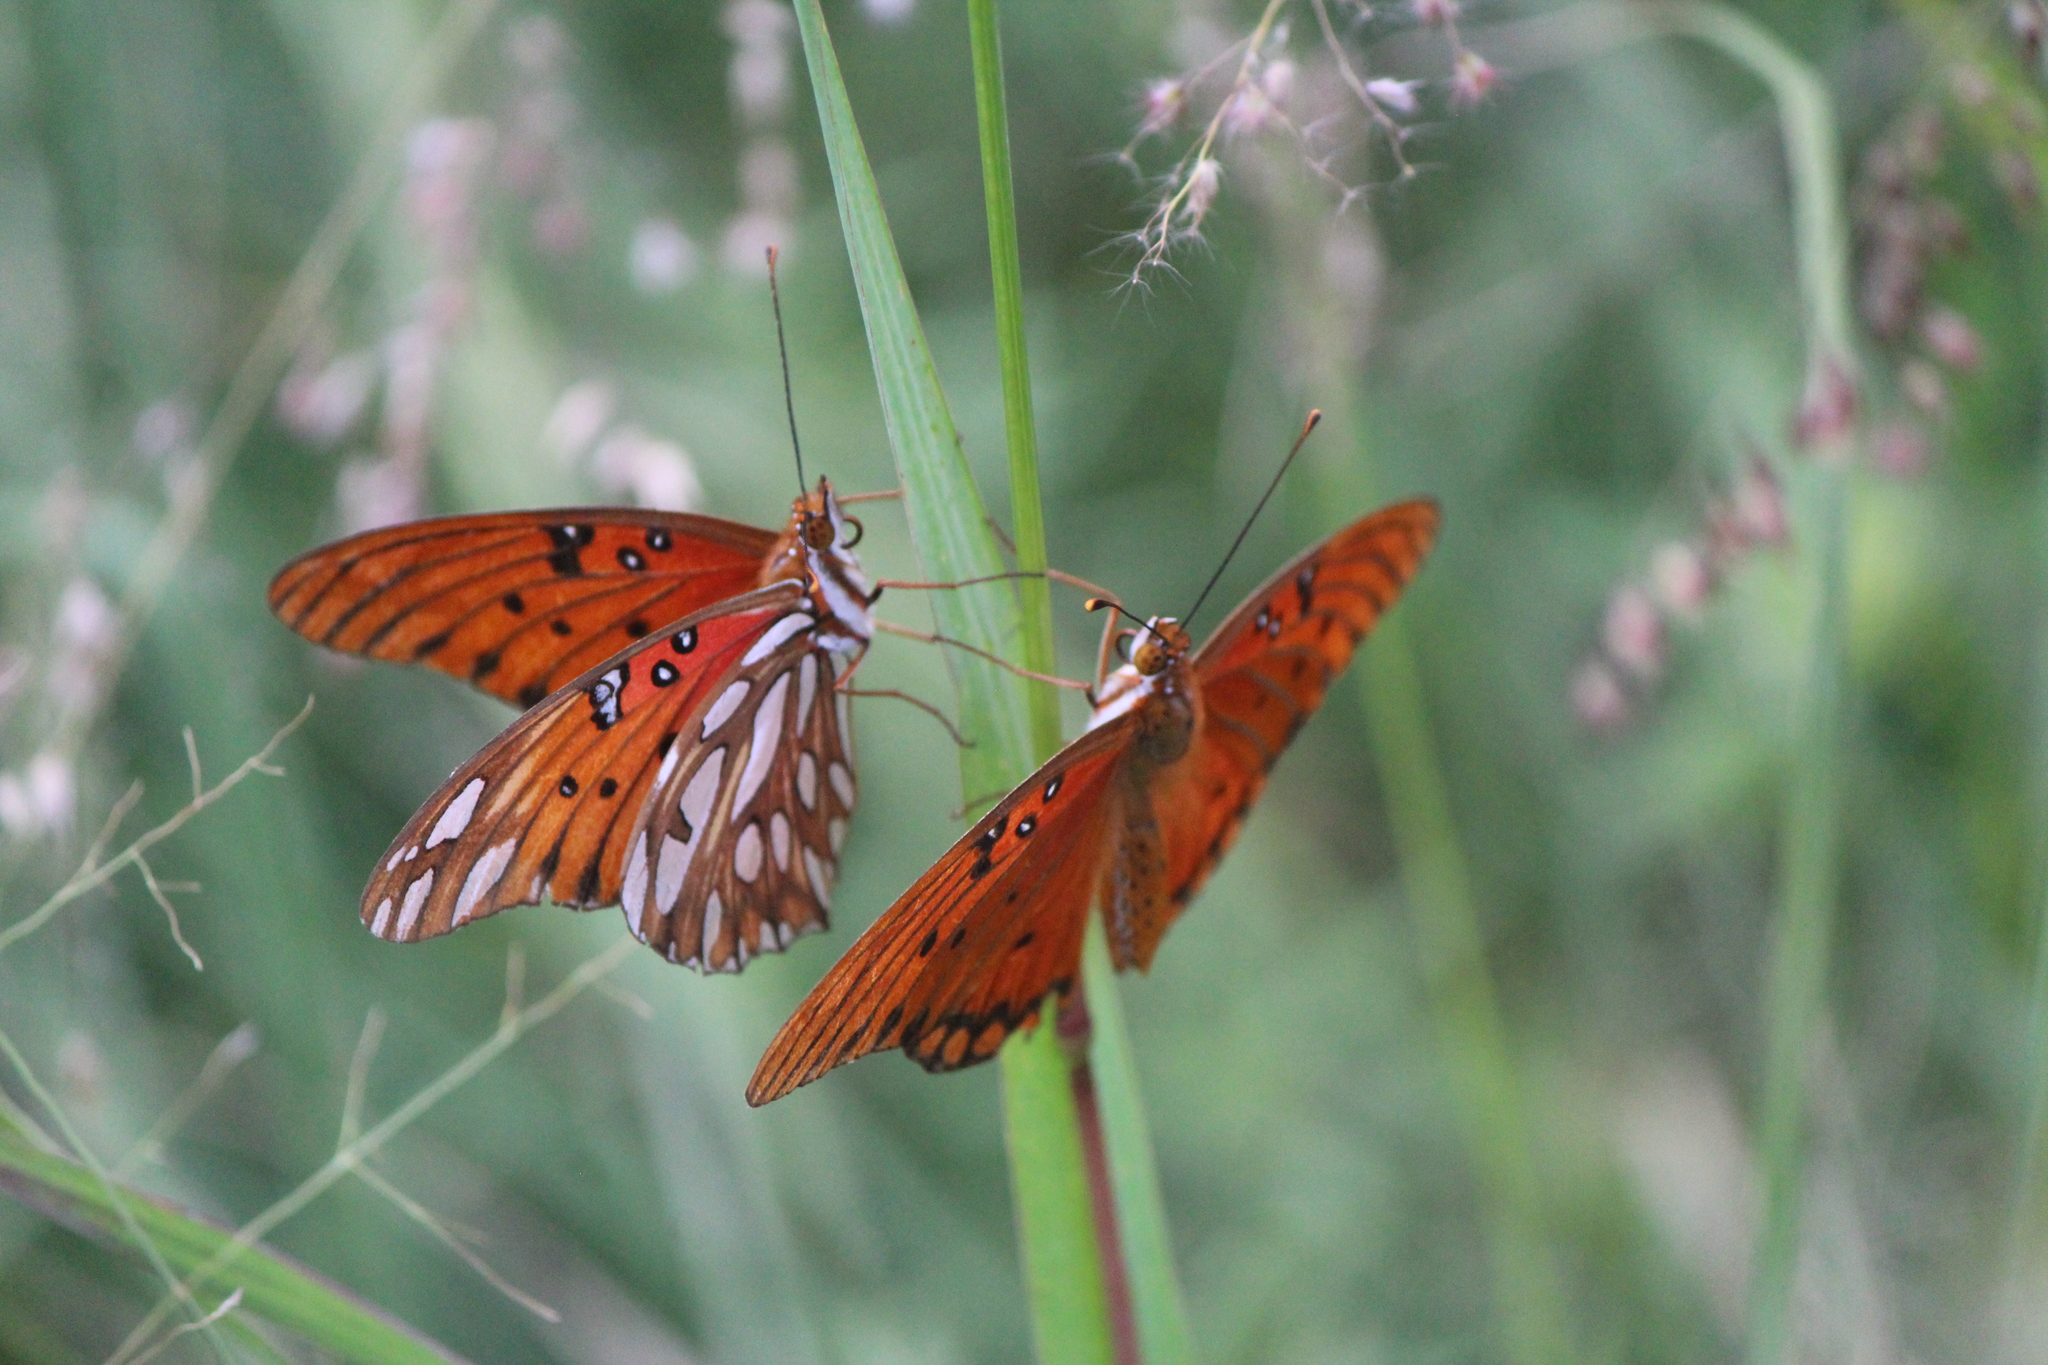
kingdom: Animalia
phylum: Arthropoda
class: Insecta
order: Lepidoptera
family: Nymphalidae
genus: Dione
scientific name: Dione vanillae
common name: Gulf fritillary
